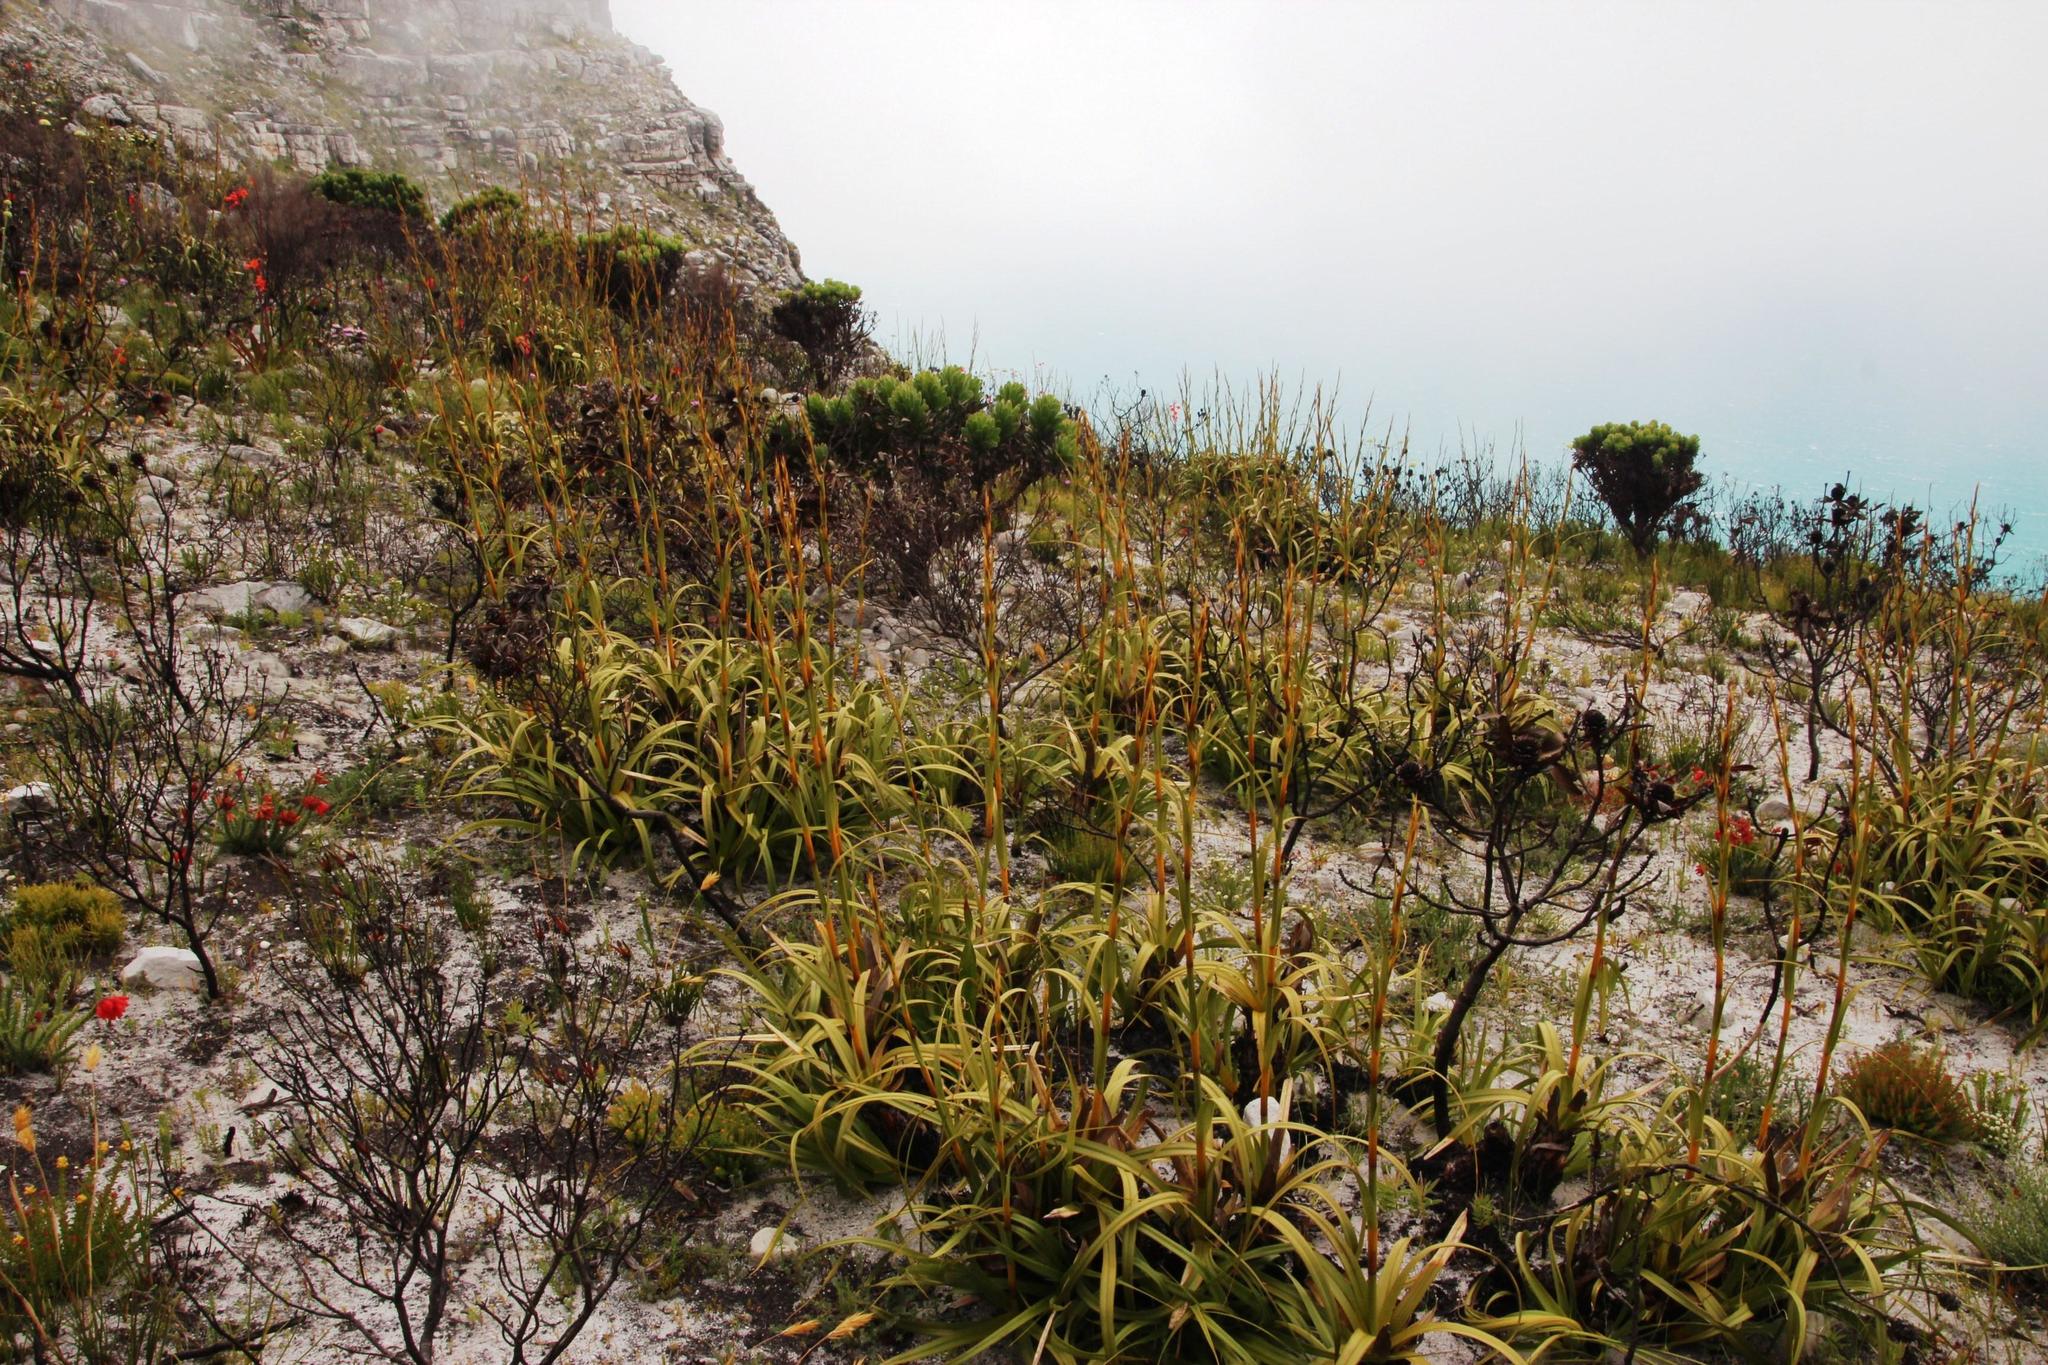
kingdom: Plantae
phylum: Tracheophyta
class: Liliopsida
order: Poales
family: Cyperaceae
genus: Tetraria
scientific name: Tetraria thermalis
